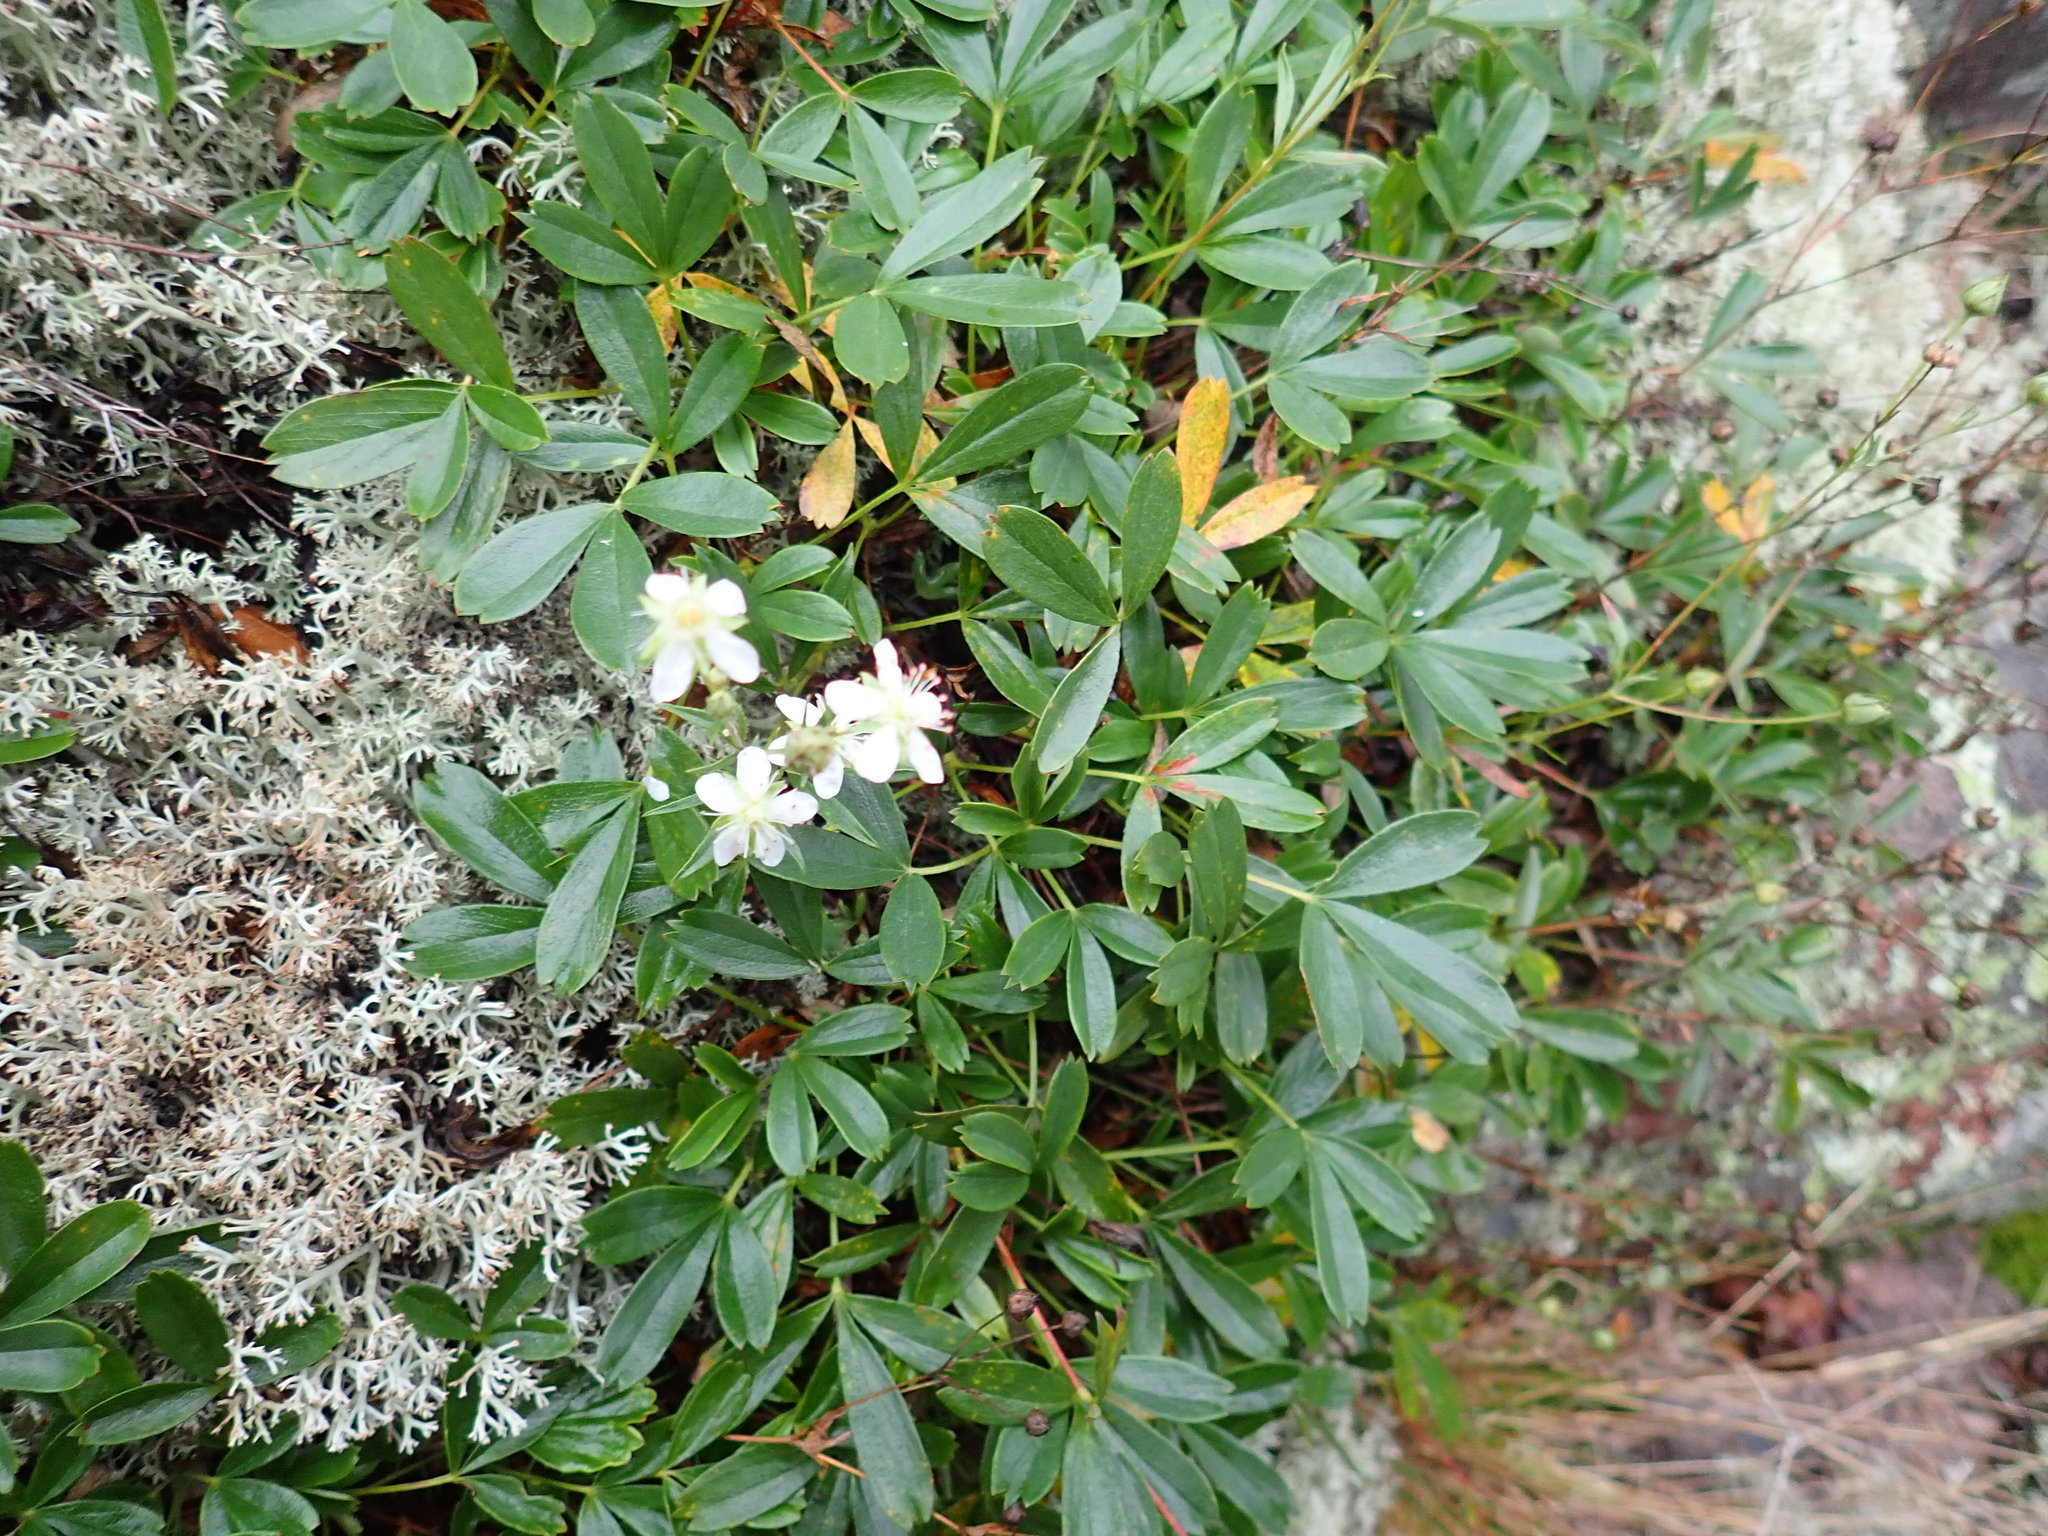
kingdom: Plantae
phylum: Tracheophyta
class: Magnoliopsida
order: Rosales
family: Rosaceae
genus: Sibbaldia
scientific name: Sibbaldia tridentata
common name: Three-toothed cinquefoil
